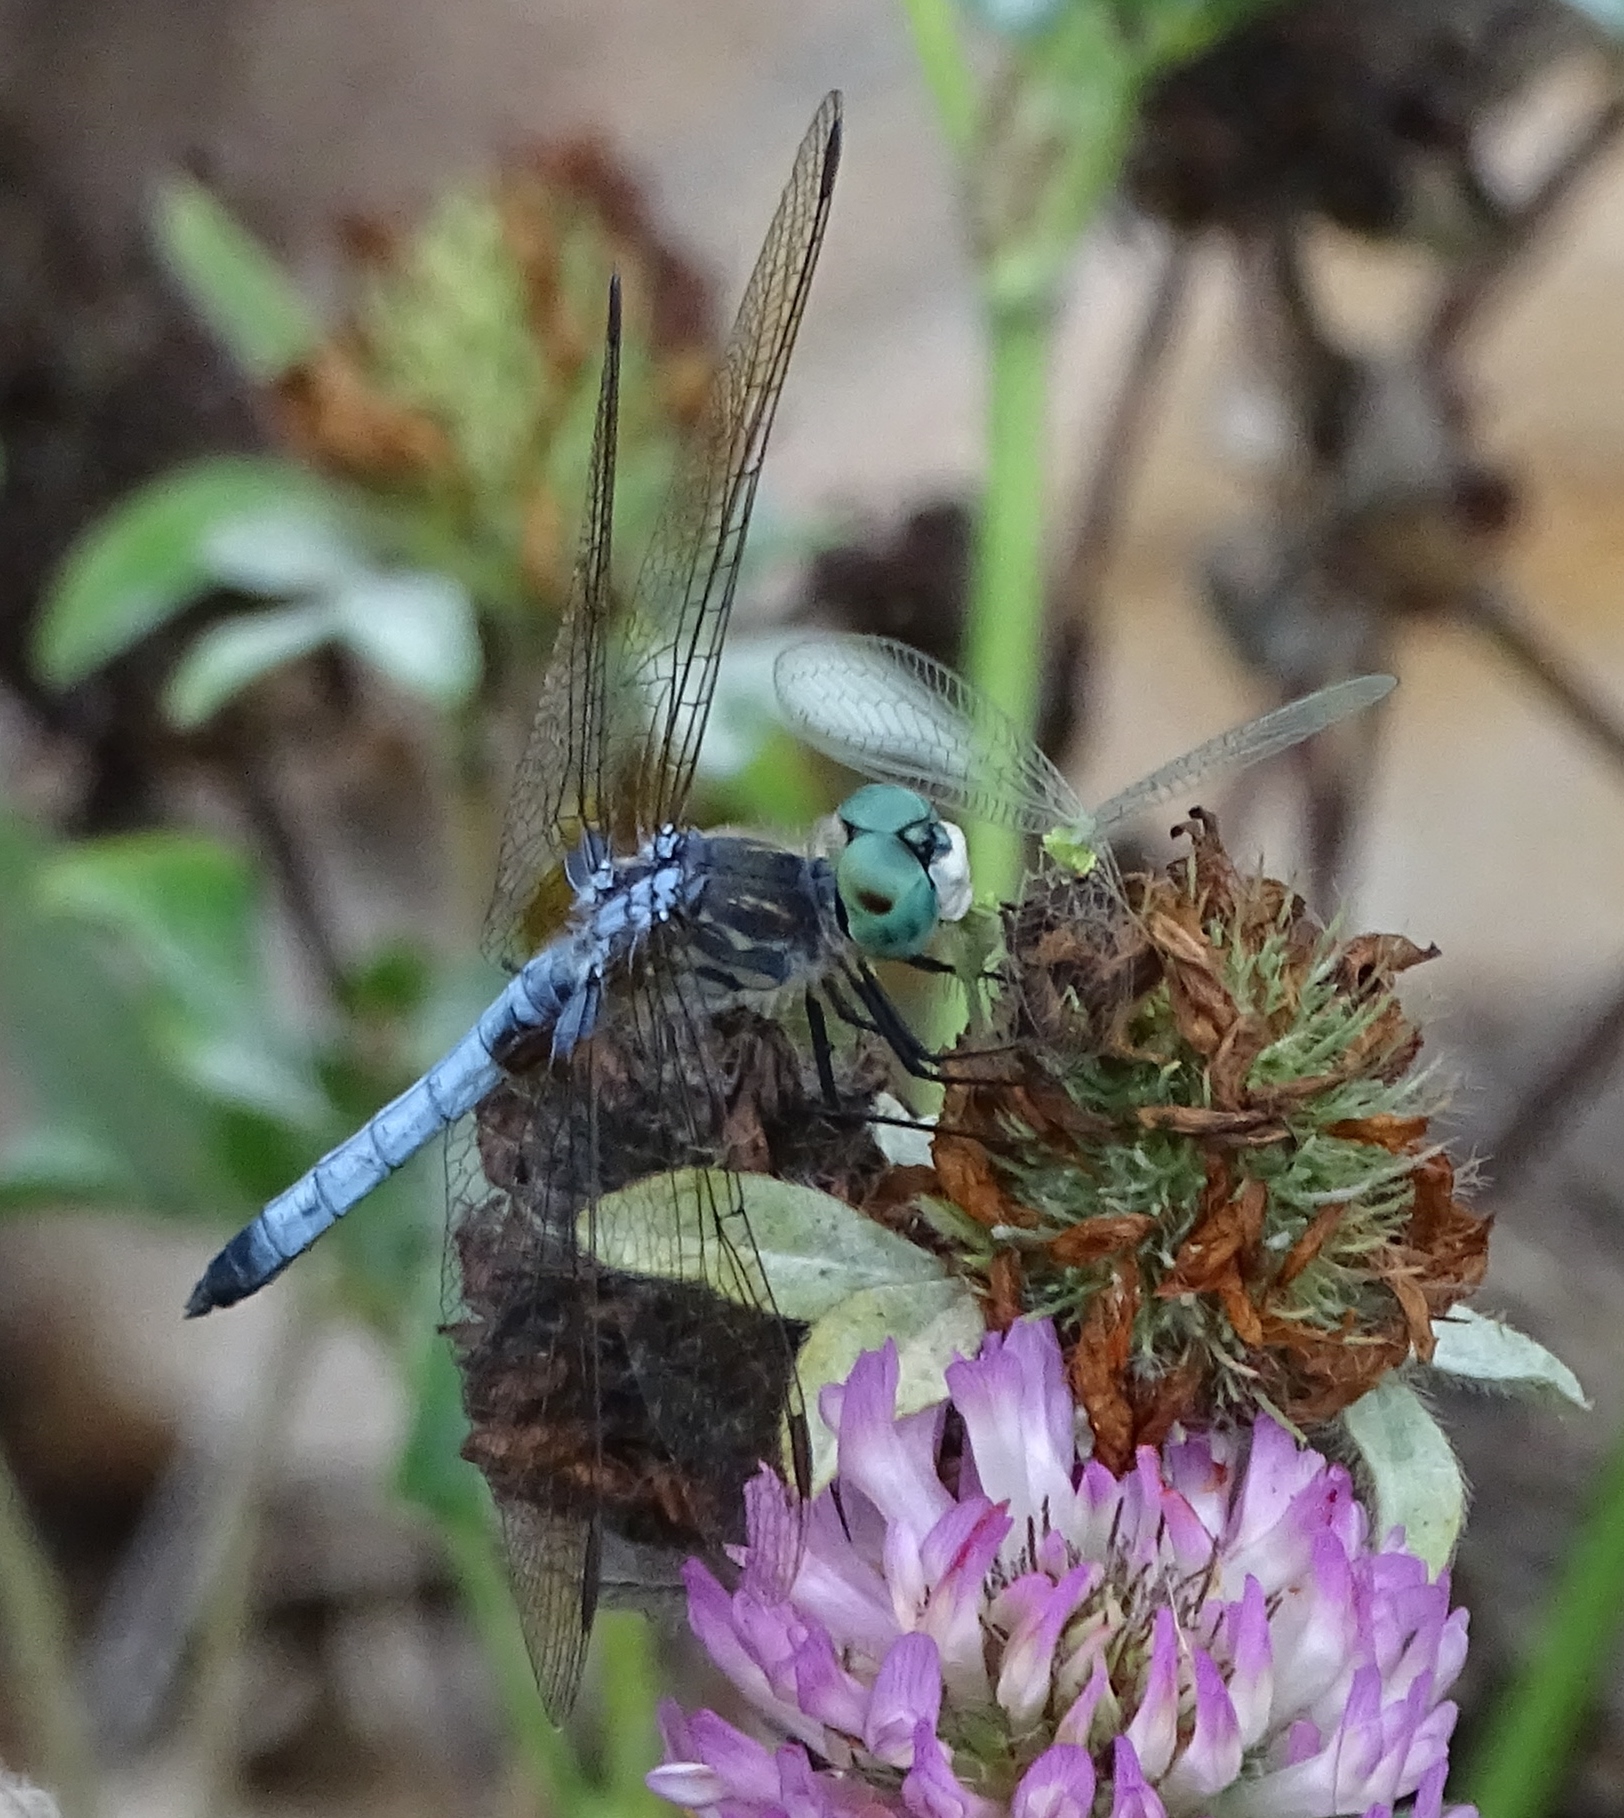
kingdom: Animalia
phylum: Arthropoda
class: Insecta
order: Odonata
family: Libellulidae
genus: Pachydiplax
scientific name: Pachydiplax longipennis
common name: Blue dasher
